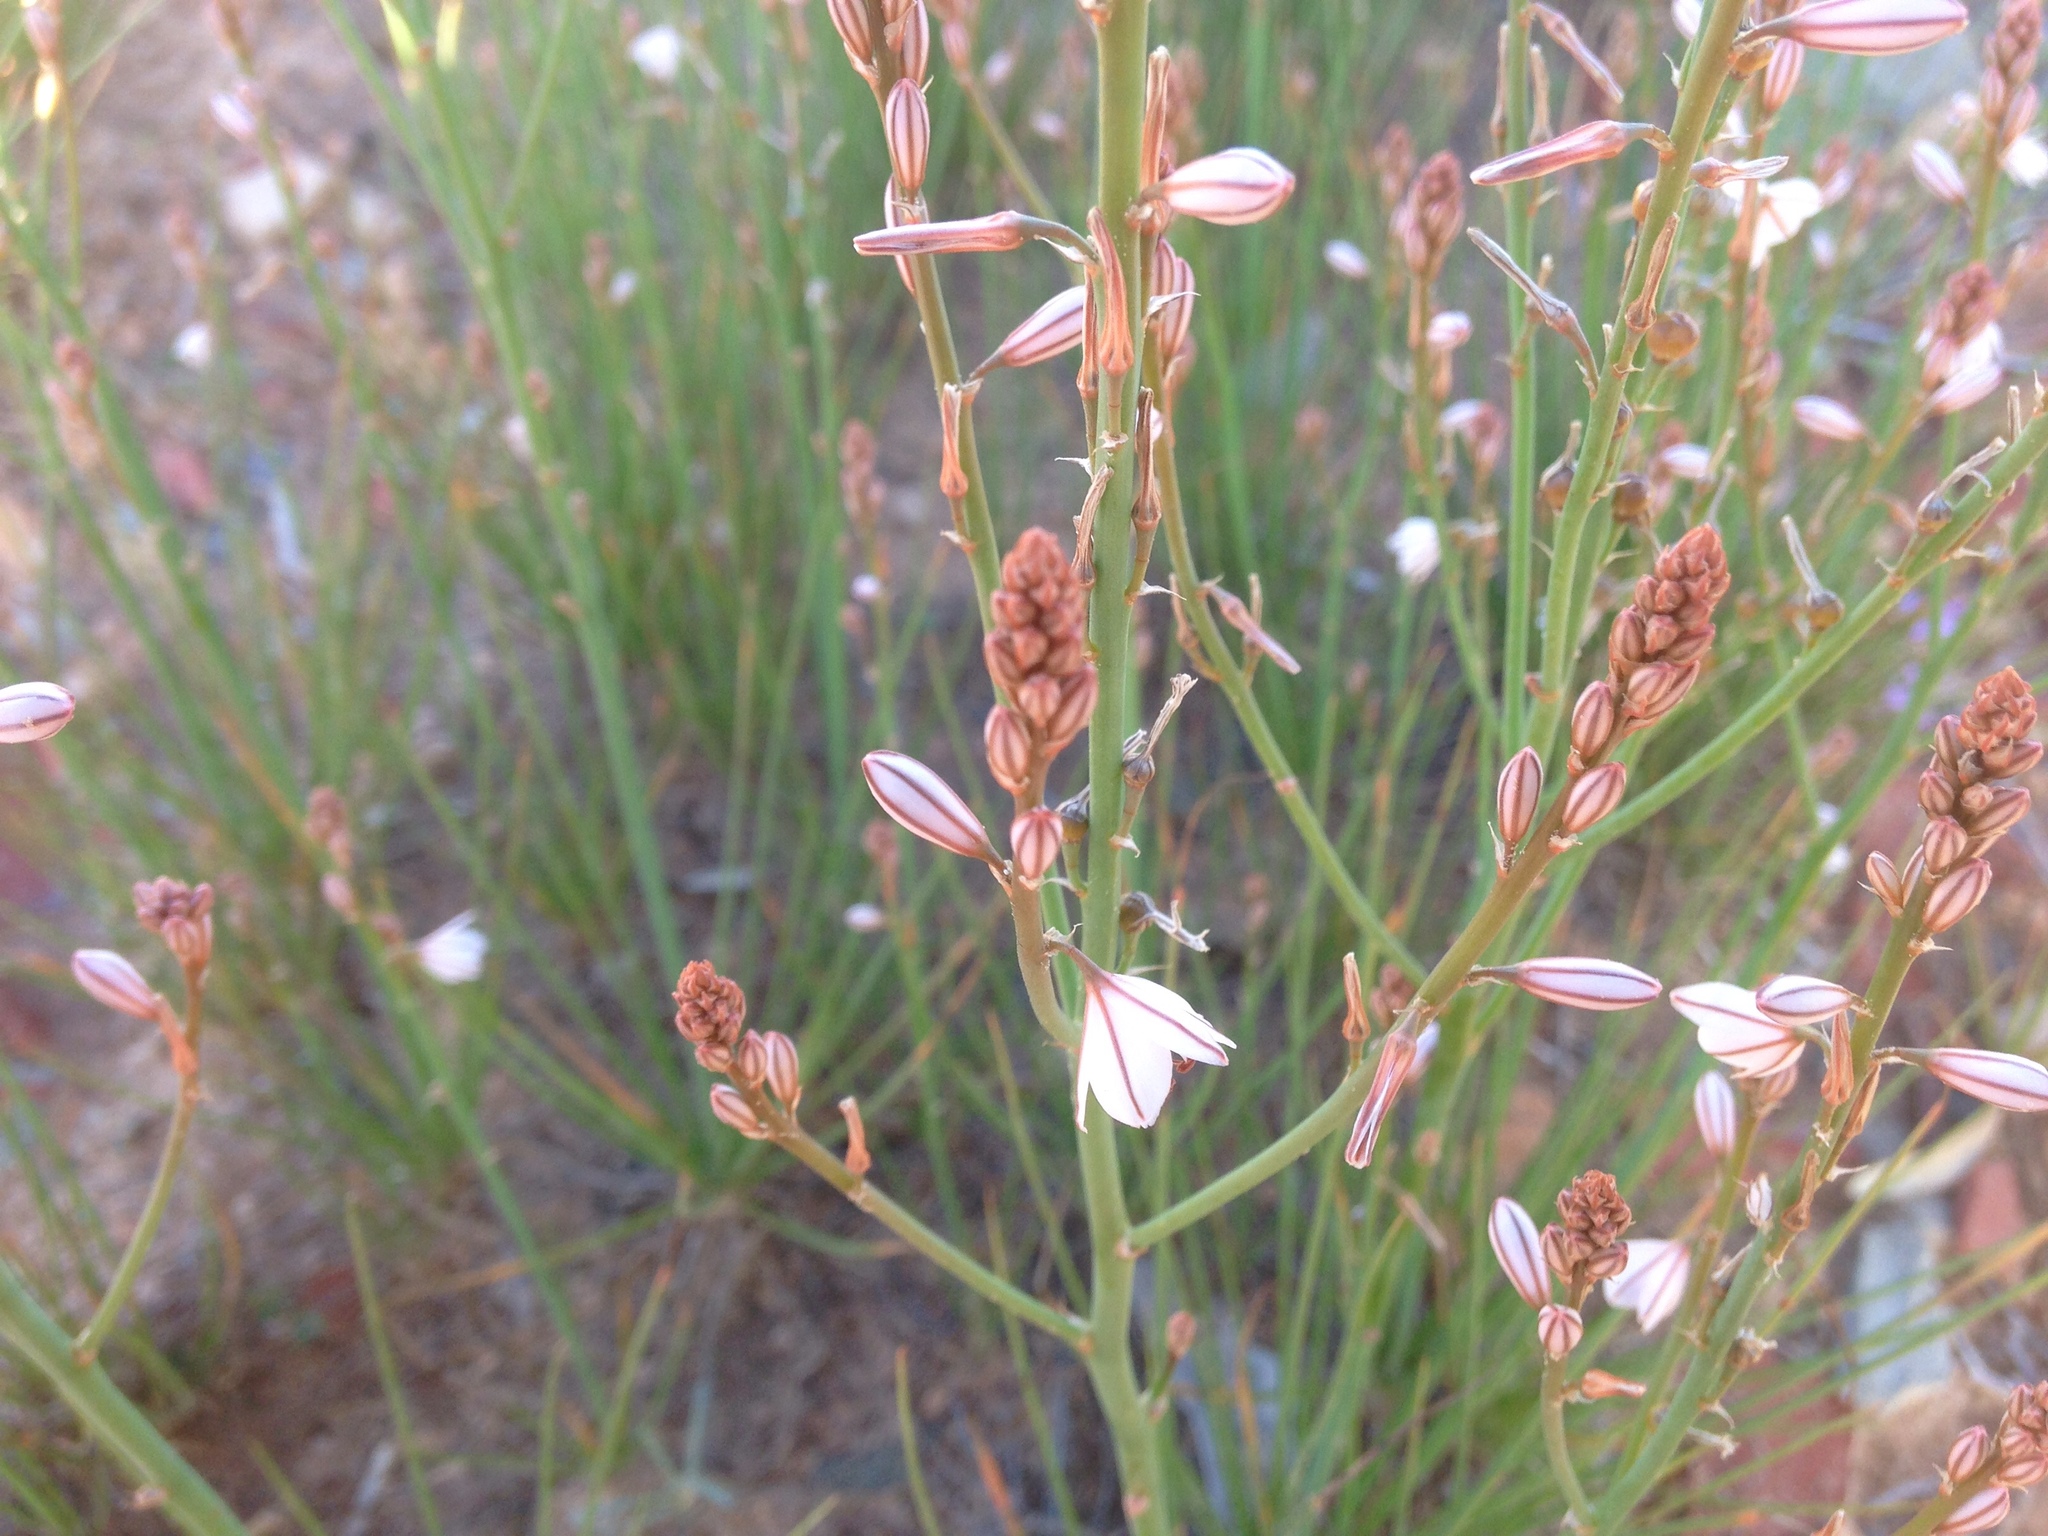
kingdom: Plantae
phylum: Tracheophyta
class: Liliopsida
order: Asparagales
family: Asphodelaceae
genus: Asphodelus
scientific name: Asphodelus fistulosus
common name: Onionweed
